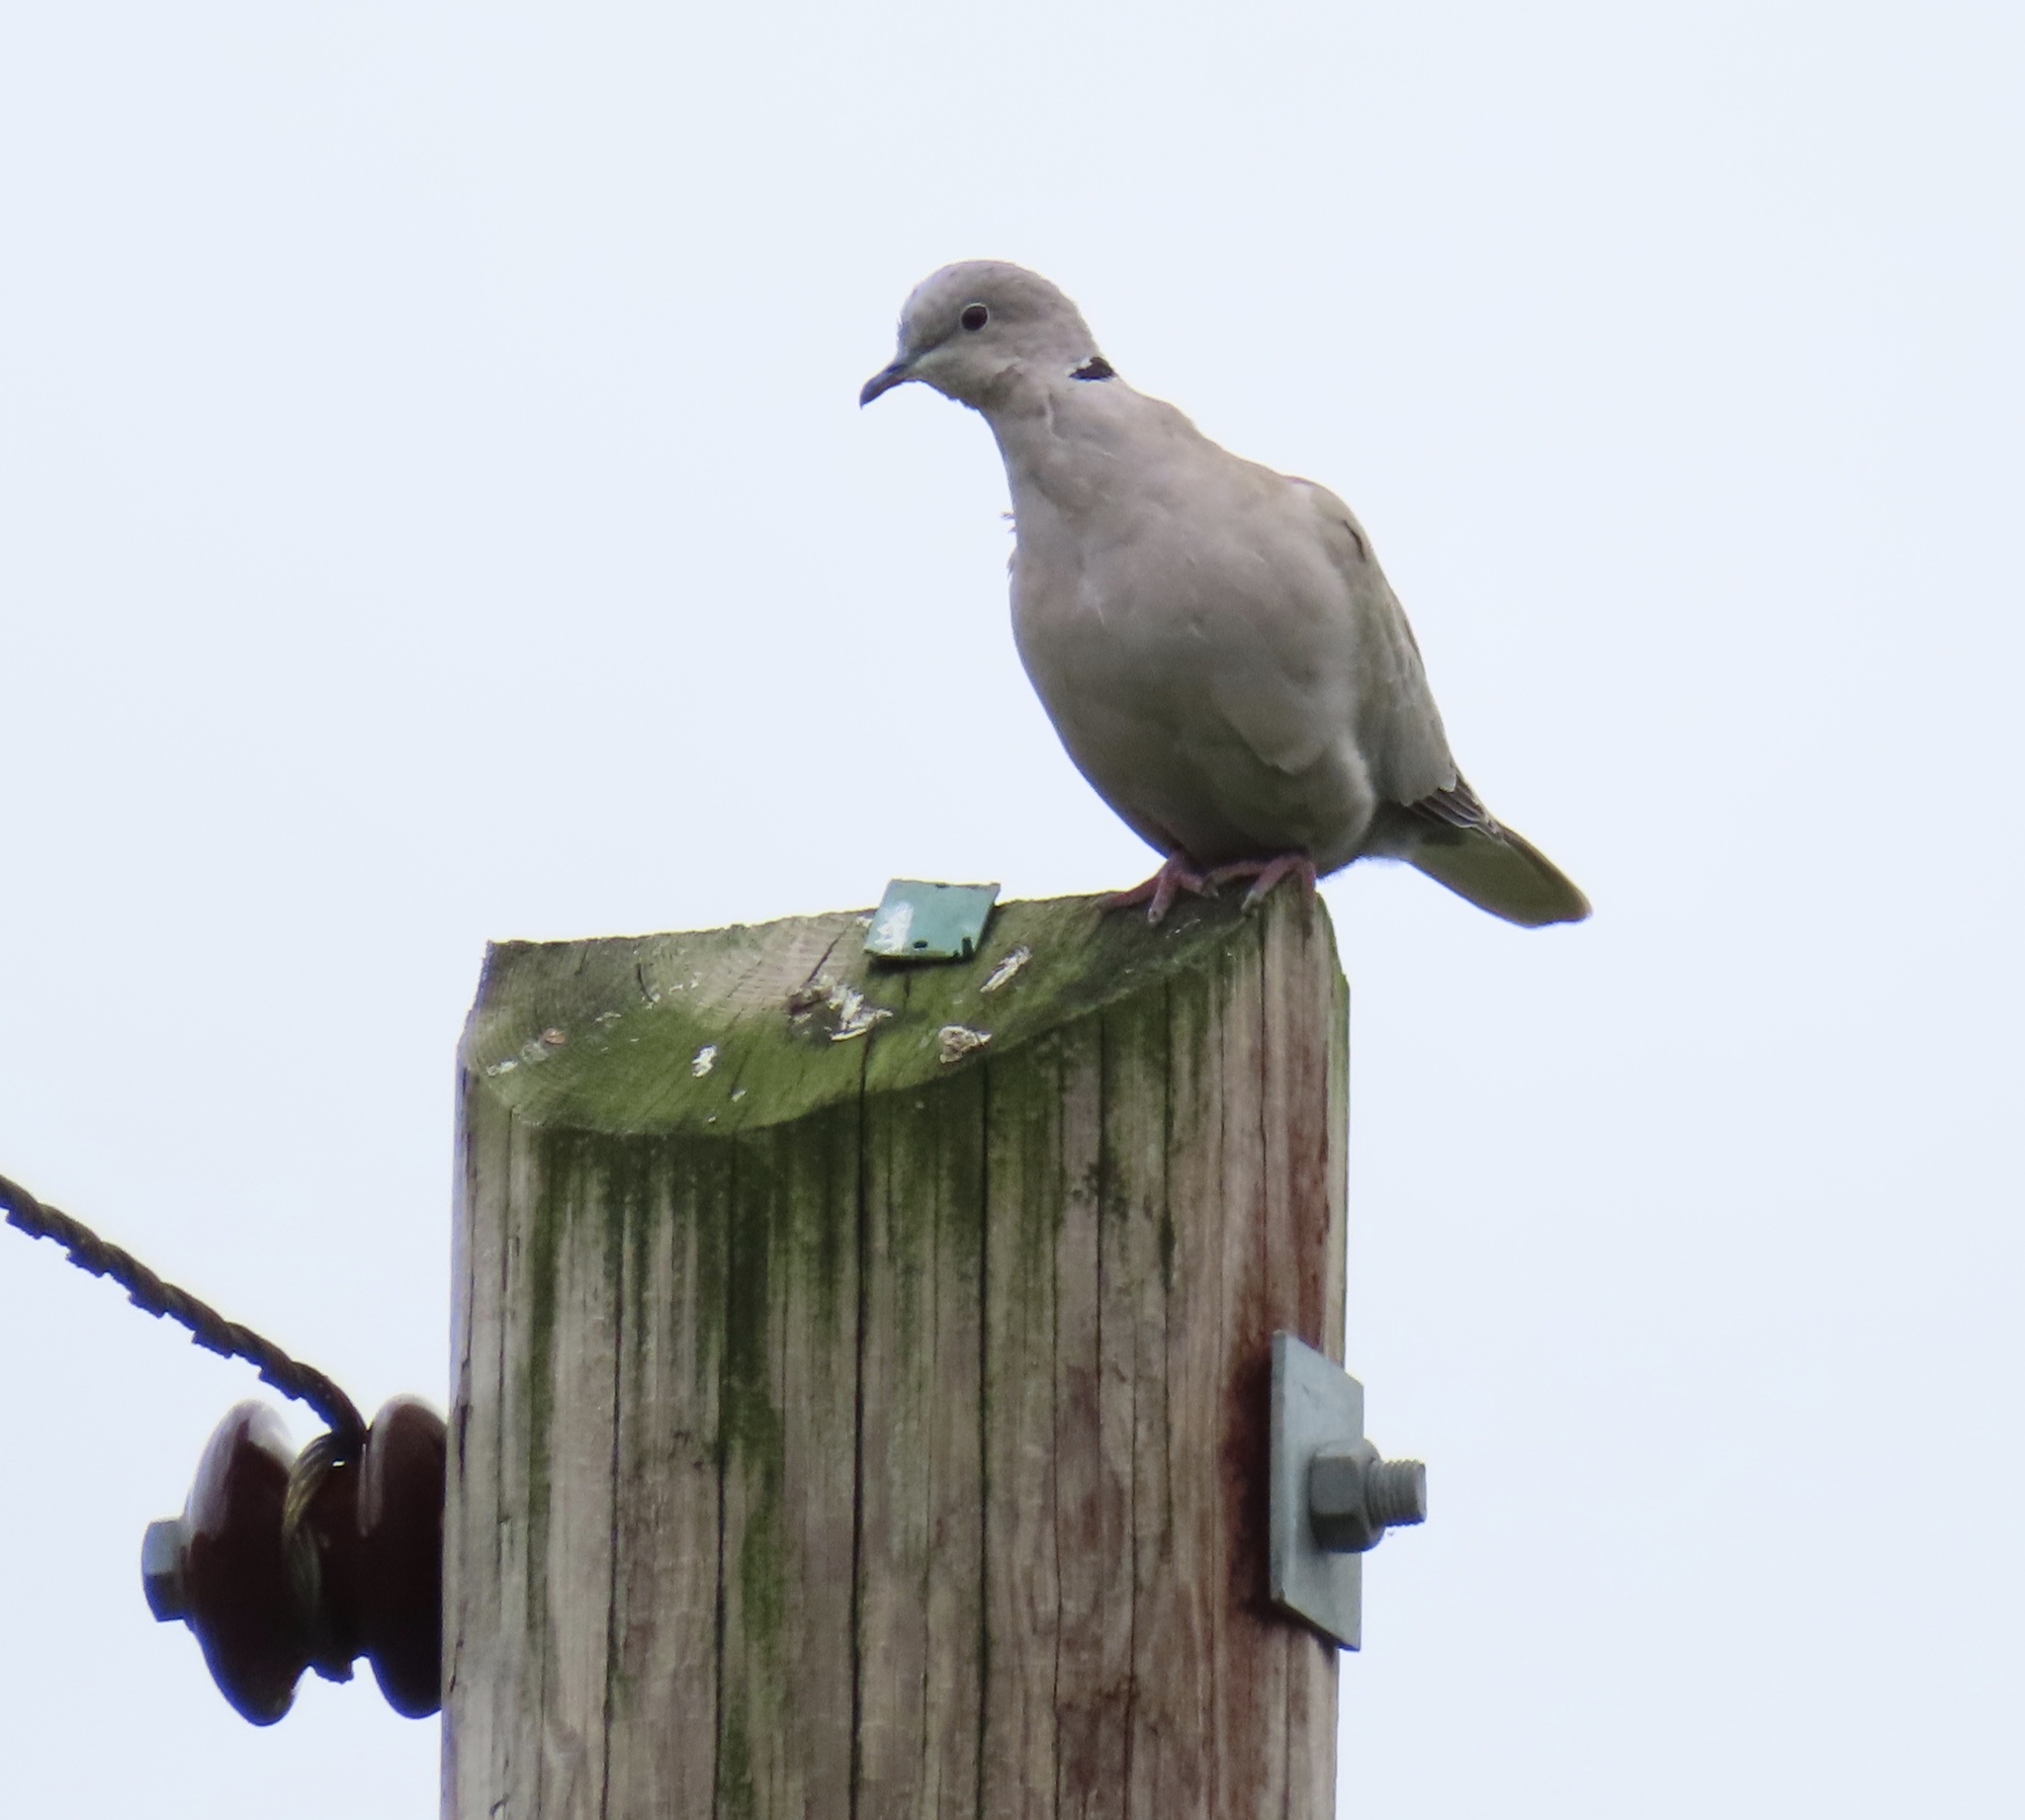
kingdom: Animalia
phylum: Chordata
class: Aves
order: Columbiformes
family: Columbidae
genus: Streptopelia
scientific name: Streptopelia decaocto
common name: Eurasian collared dove
